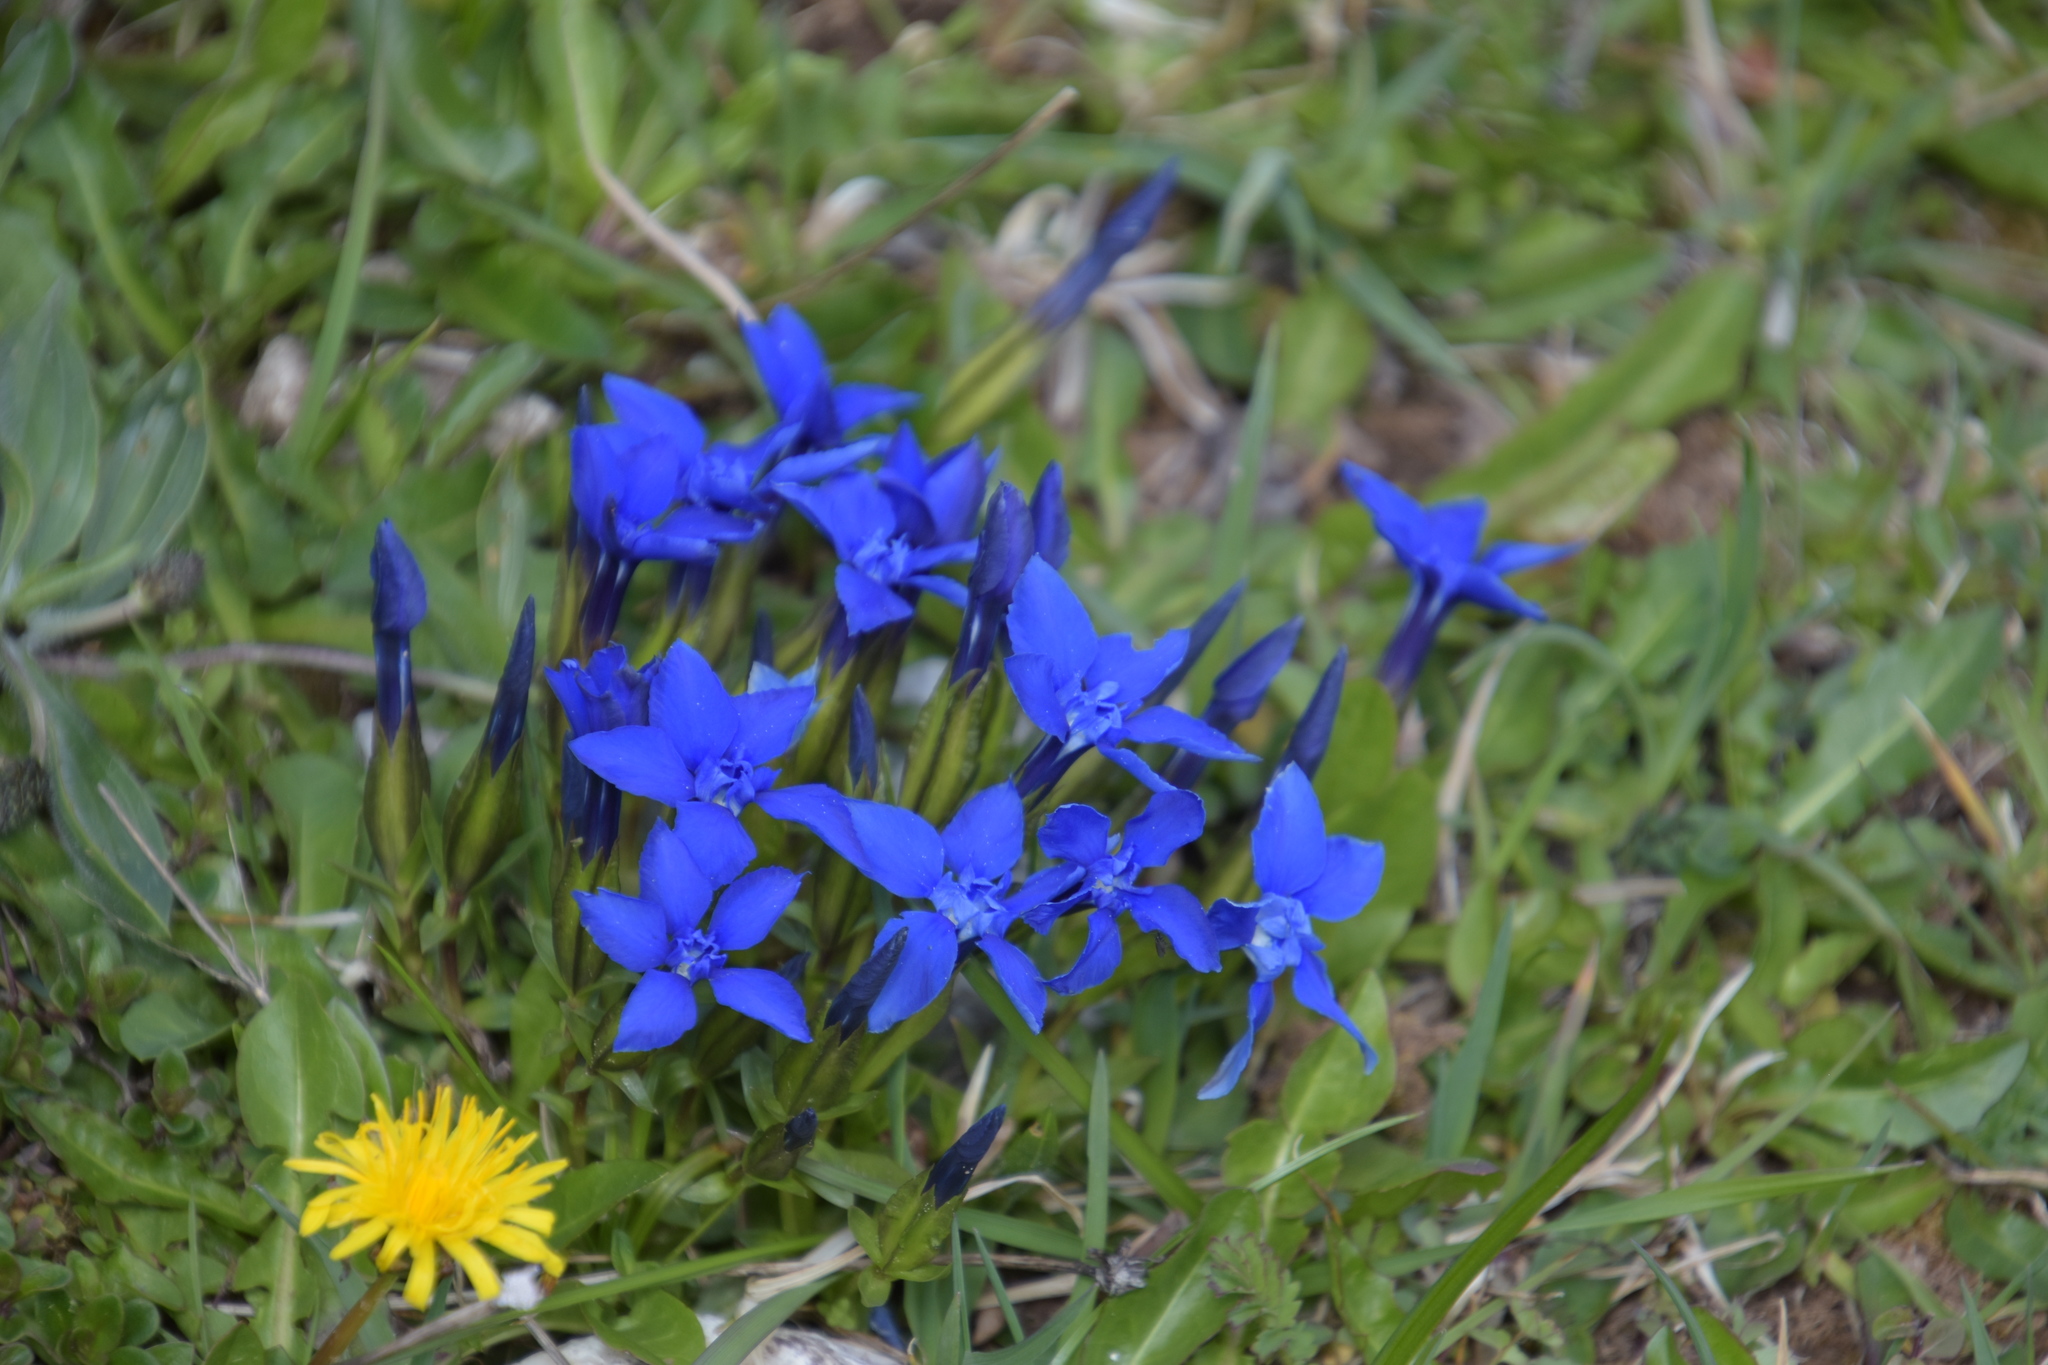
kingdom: Plantae
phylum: Tracheophyta
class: Magnoliopsida
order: Gentianales
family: Gentianaceae
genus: Gentiana
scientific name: Gentiana verna
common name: Spring gentian
